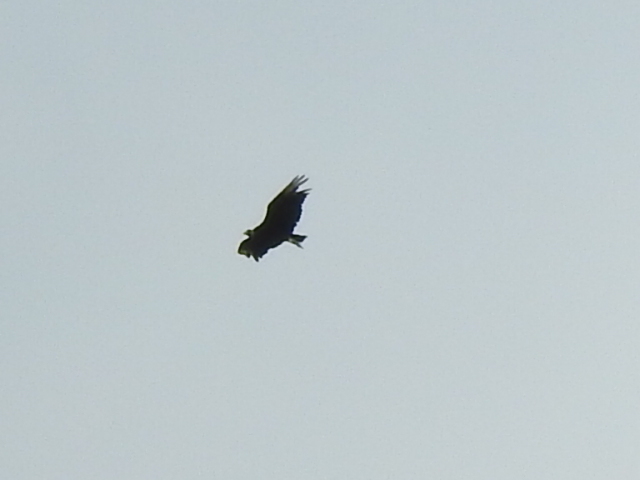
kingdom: Animalia
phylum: Chordata
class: Aves
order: Accipitriformes
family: Cathartidae
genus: Coragyps
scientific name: Coragyps atratus
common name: Black vulture
